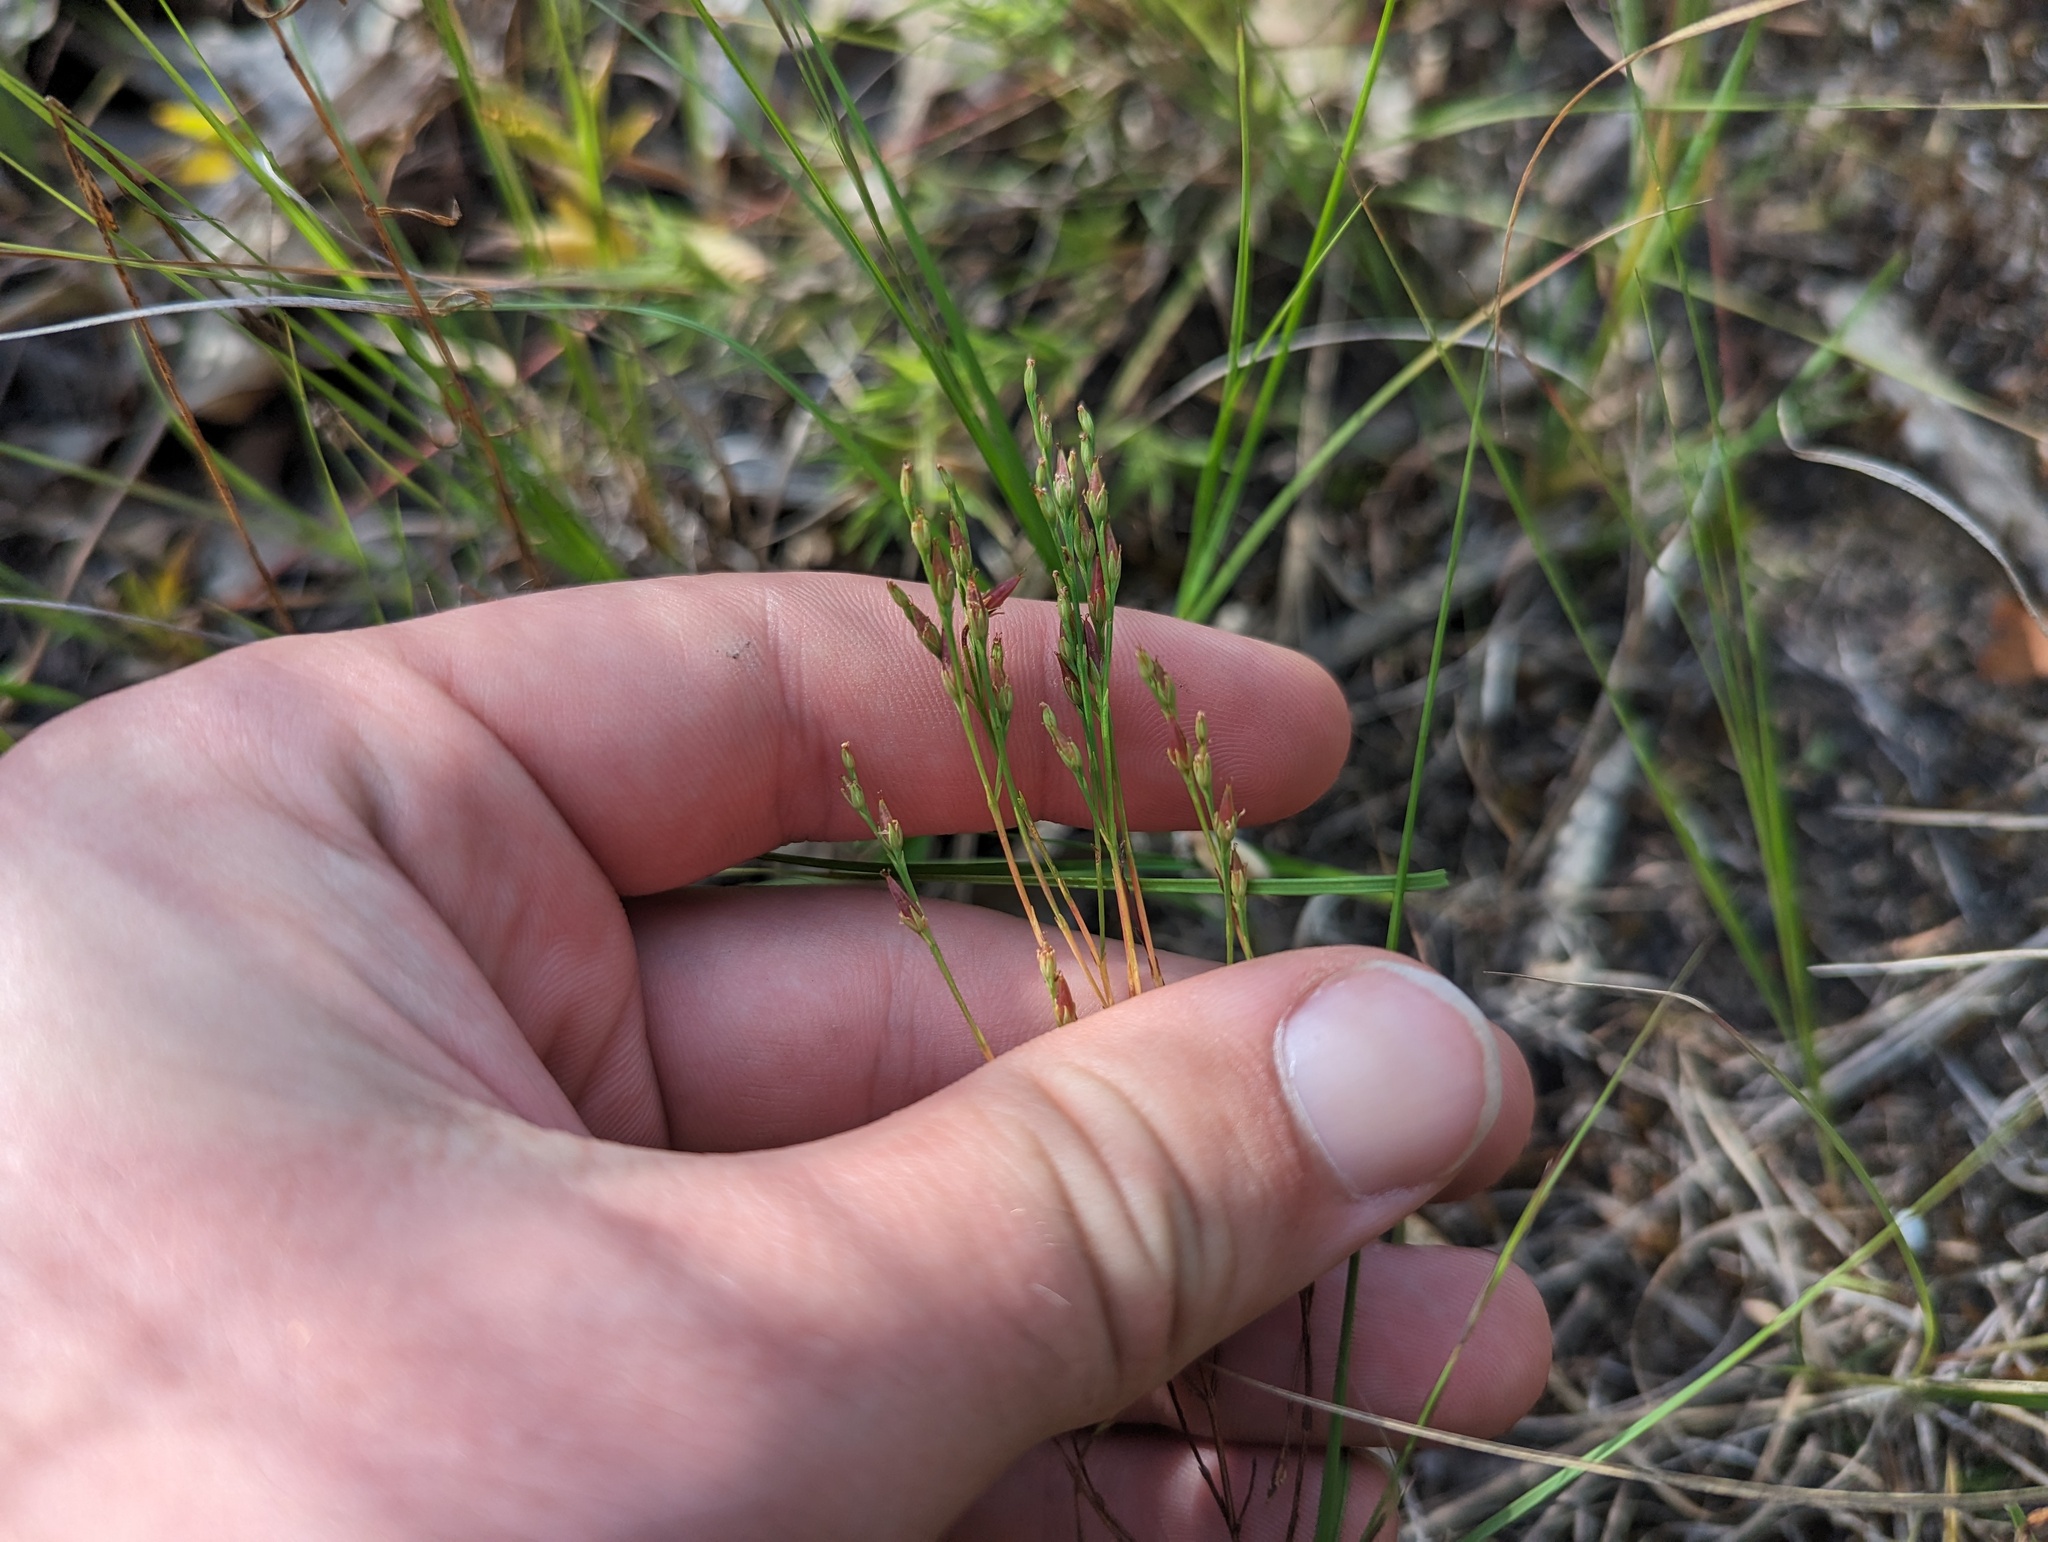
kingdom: Plantae
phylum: Tracheophyta
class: Magnoliopsida
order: Malpighiales
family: Hypericaceae
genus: Hypericum
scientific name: Hypericum gentianoides
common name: Gentian-leaved st. john's-wort
